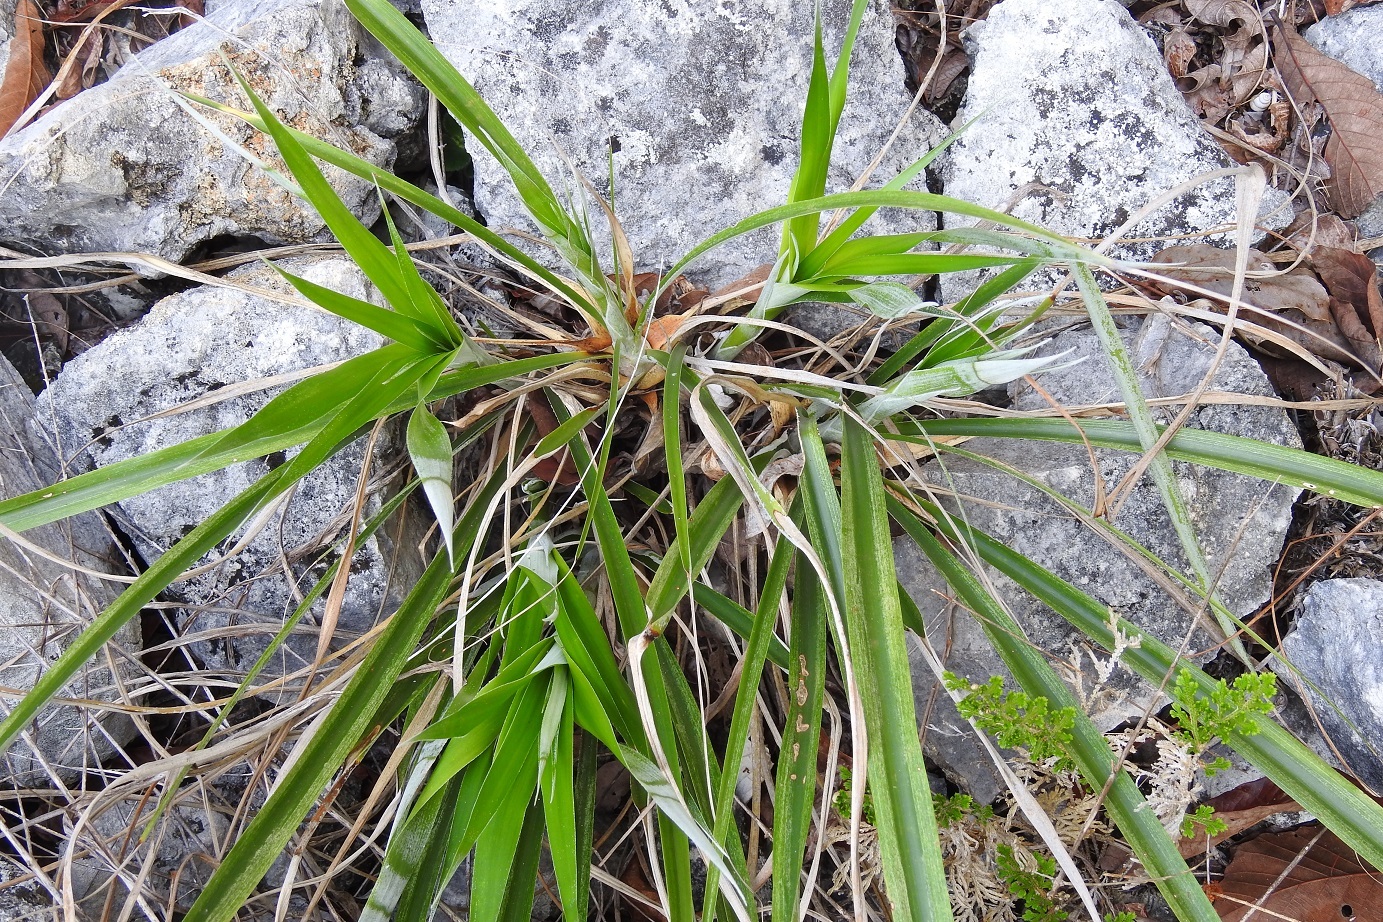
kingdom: Plantae
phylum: Tracheophyta
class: Liliopsida
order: Poales
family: Bromeliaceae
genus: Pitcairnia
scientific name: Pitcairnia breedlovei
